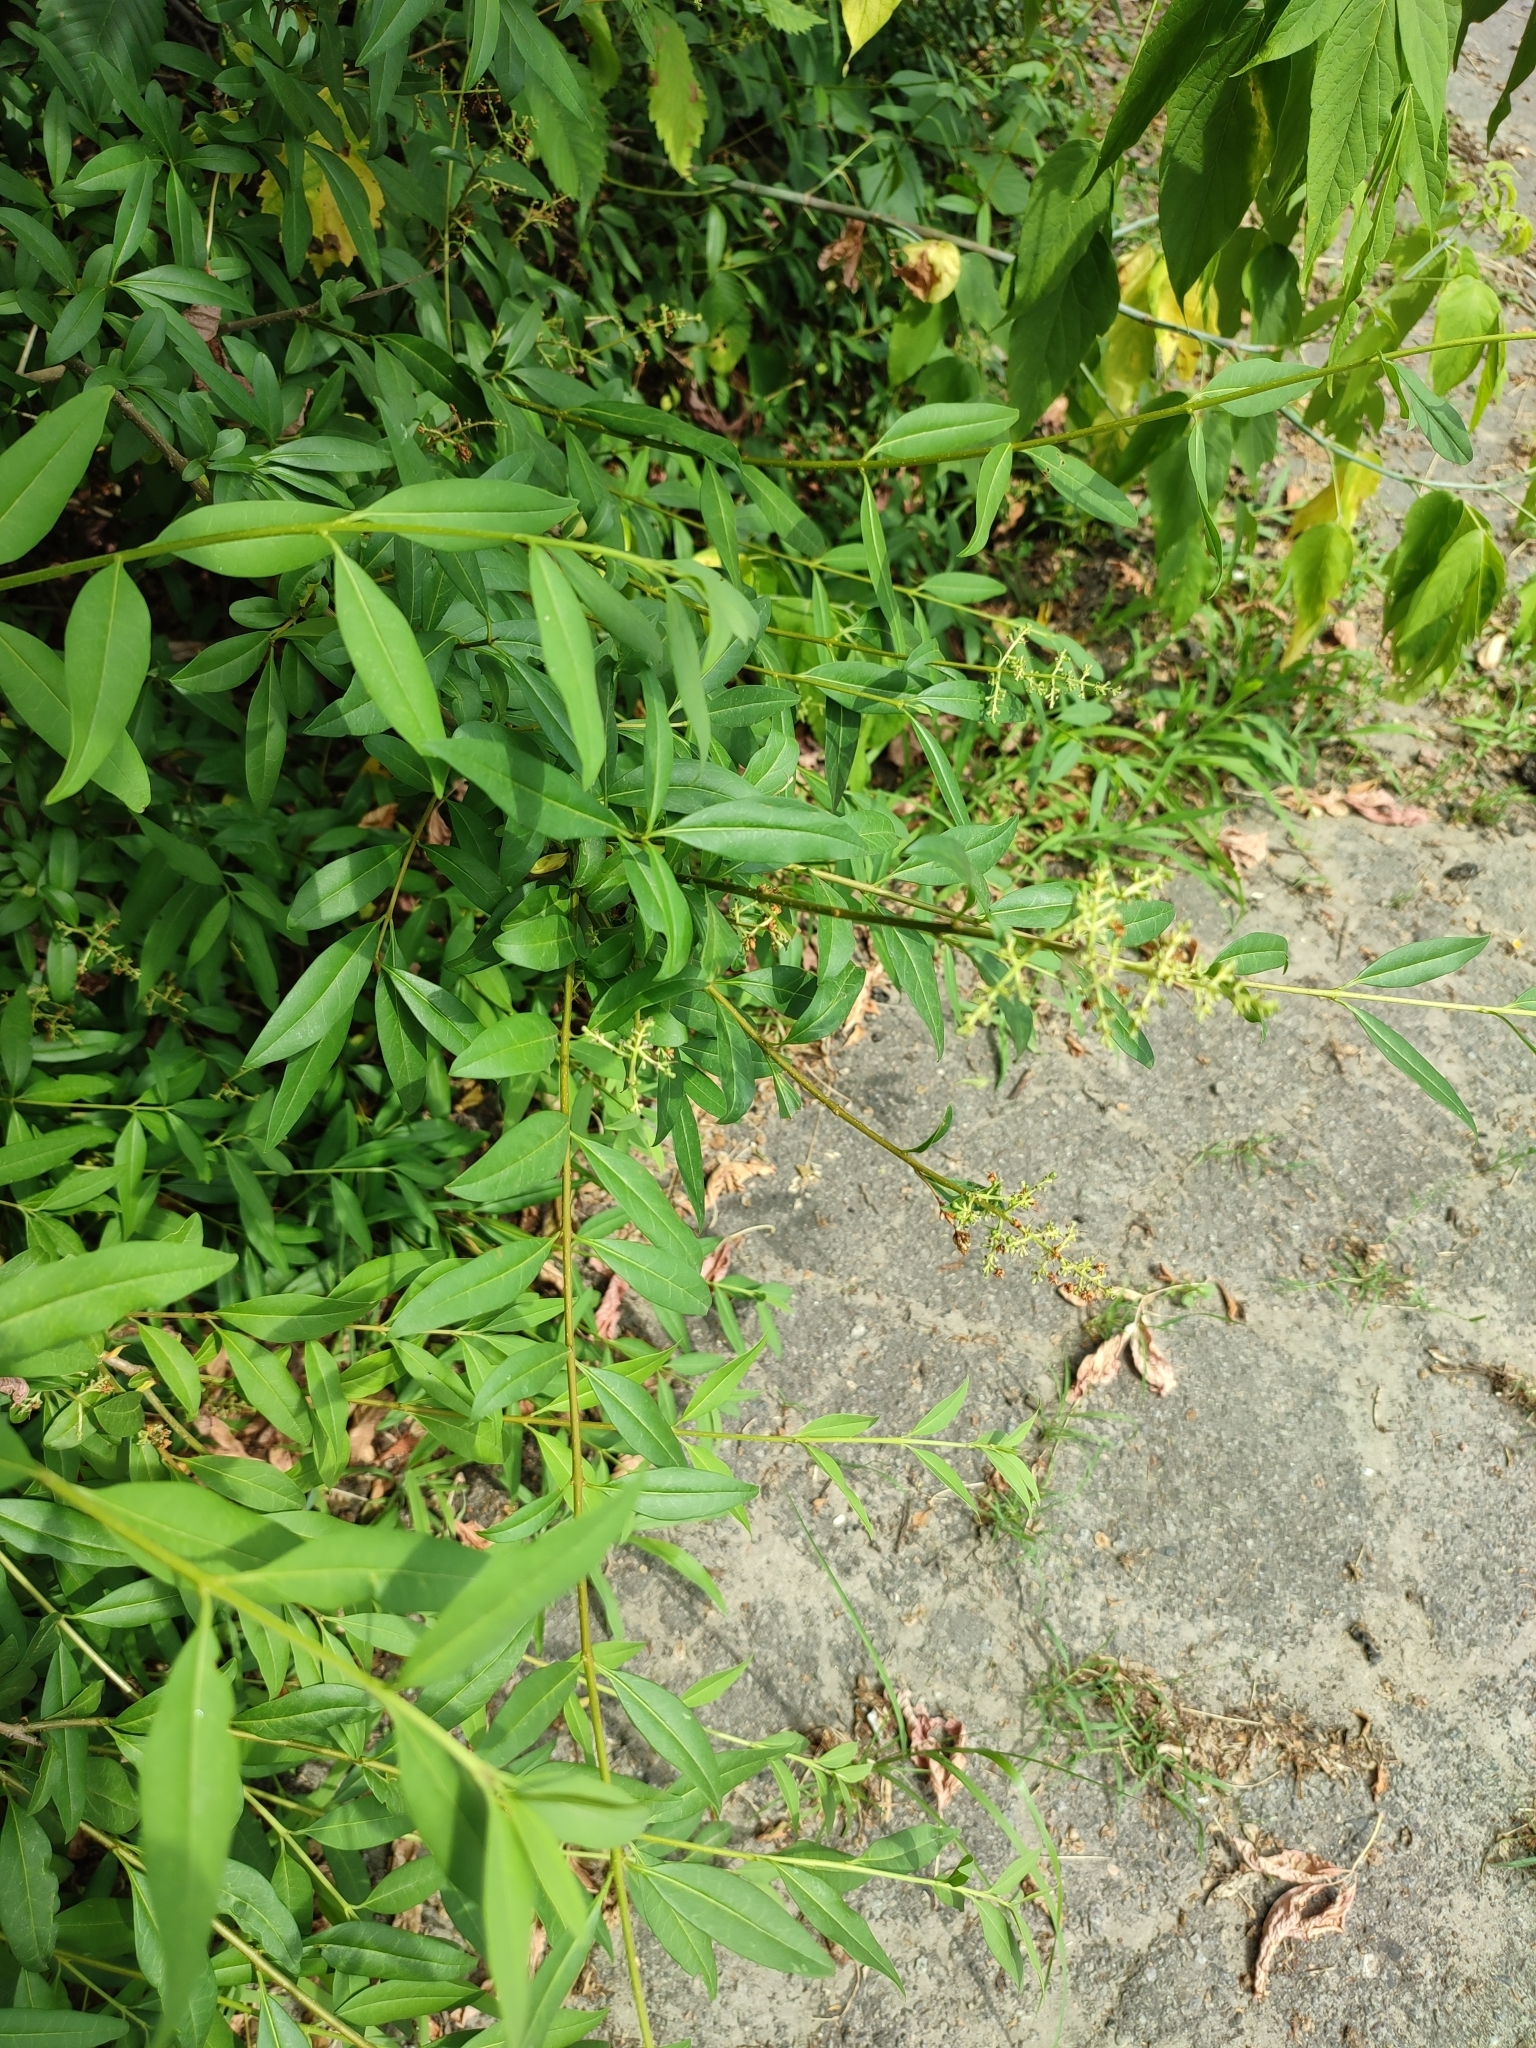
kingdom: Plantae
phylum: Tracheophyta
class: Magnoliopsida
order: Lamiales
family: Oleaceae
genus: Ligustrum
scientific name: Ligustrum vulgare
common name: Wild privet
